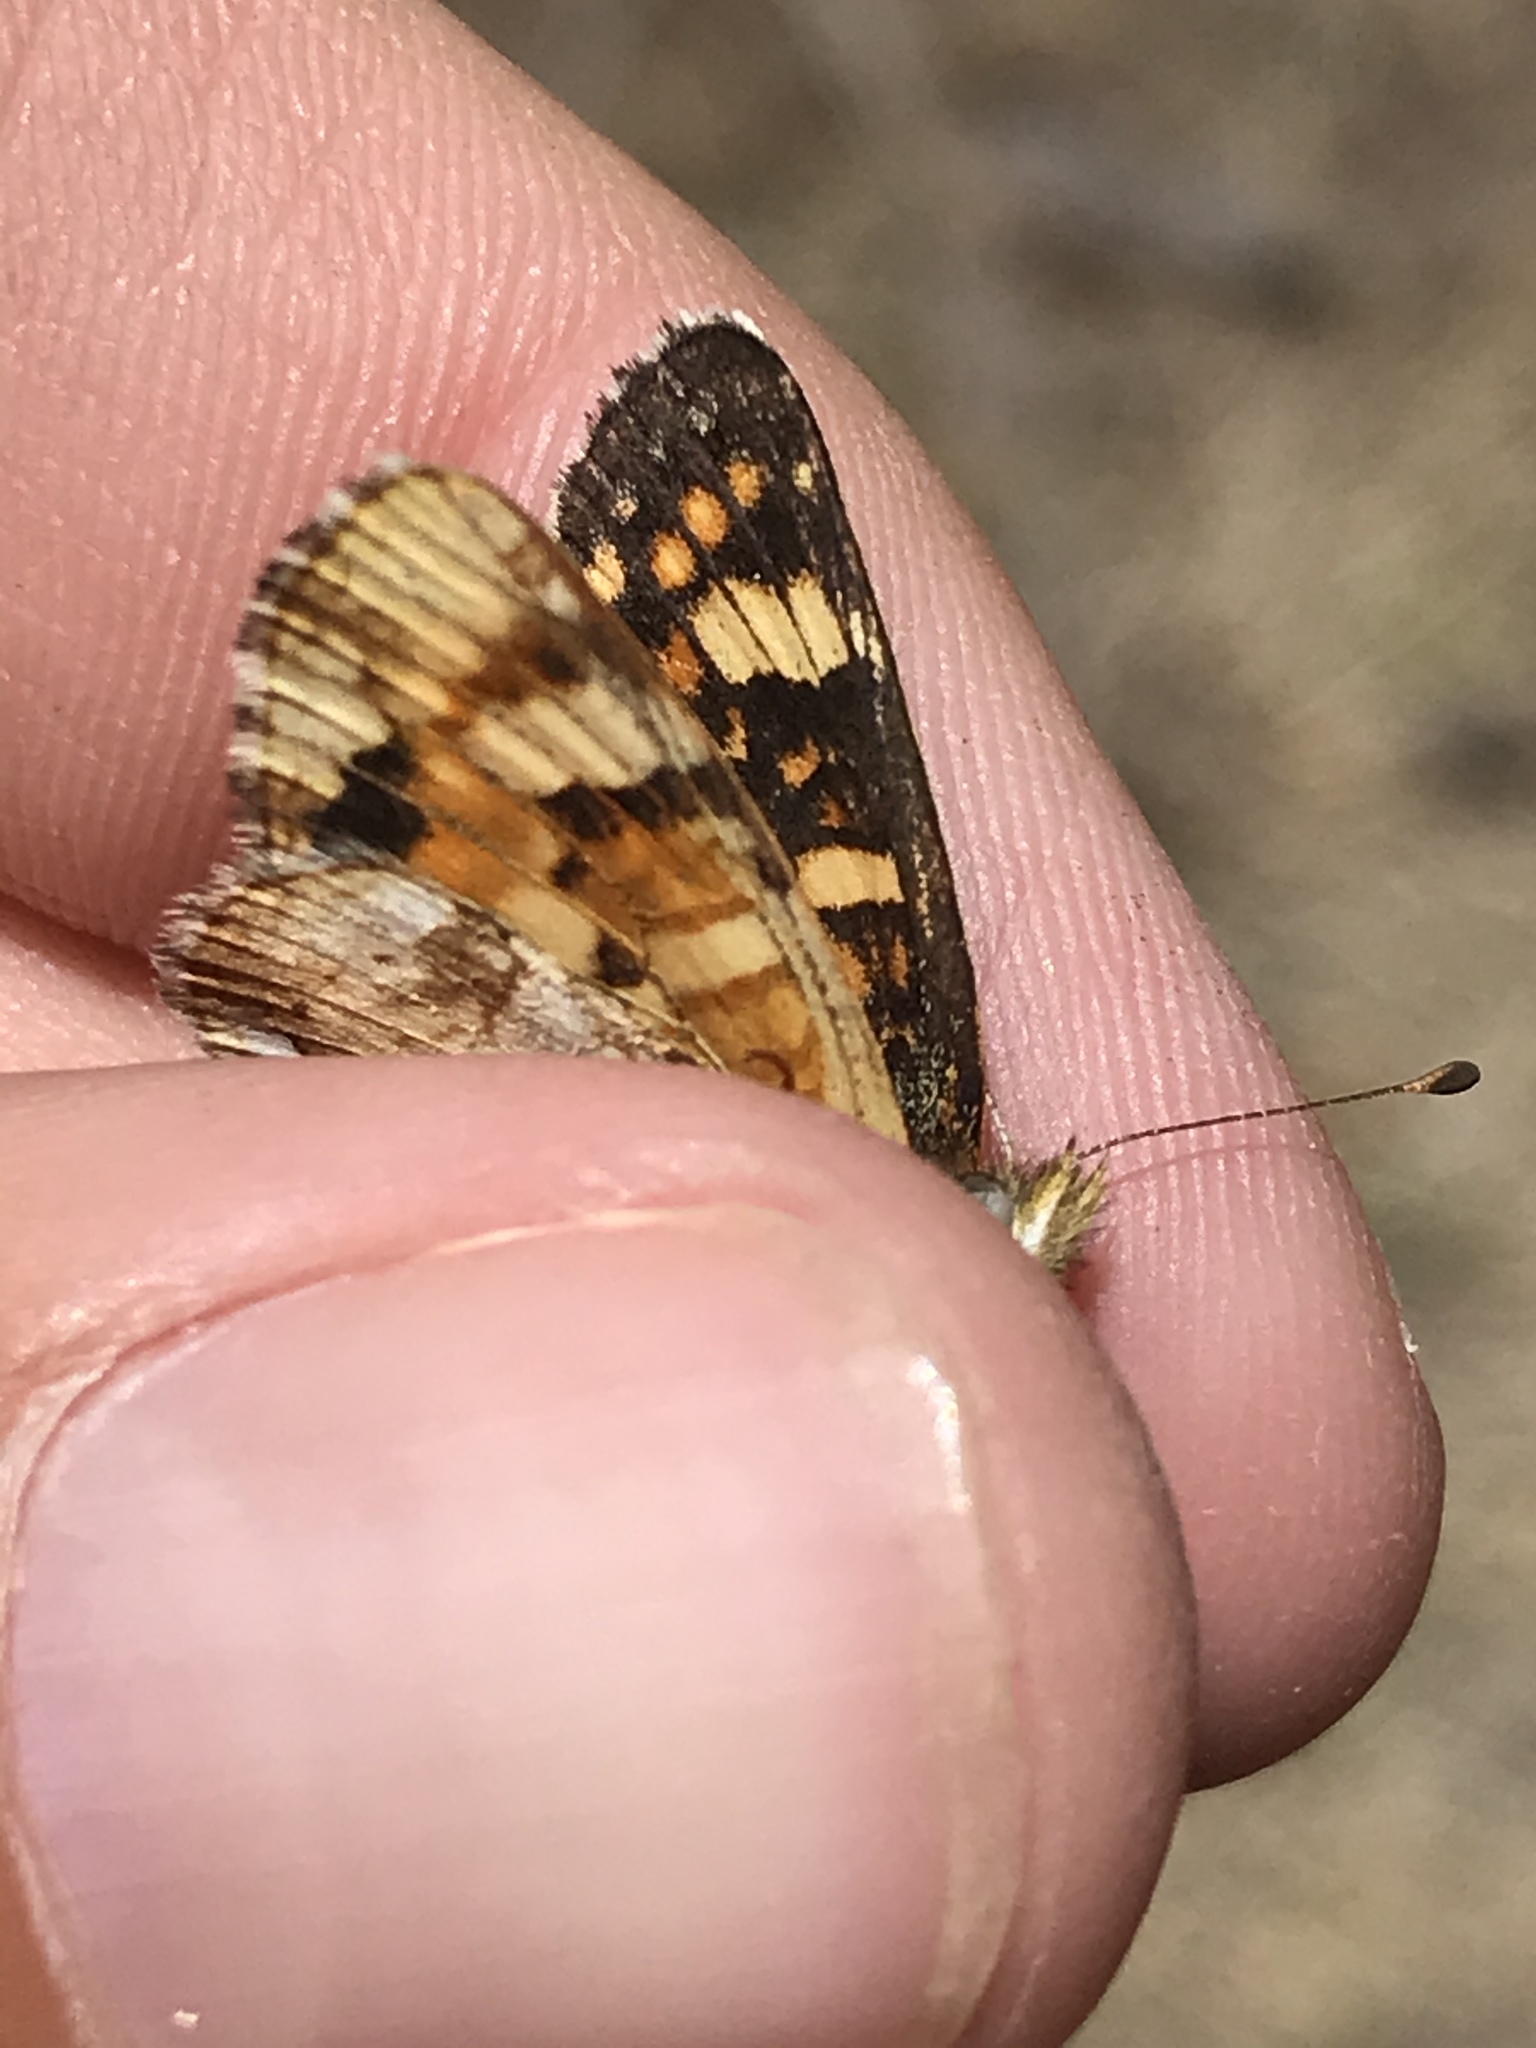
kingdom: Animalia
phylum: Arthropoda
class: Insecta
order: Lepidoptera
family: Nymphalidae
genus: Phyciodes
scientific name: Phyciodes tharos
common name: Pearl crescent
